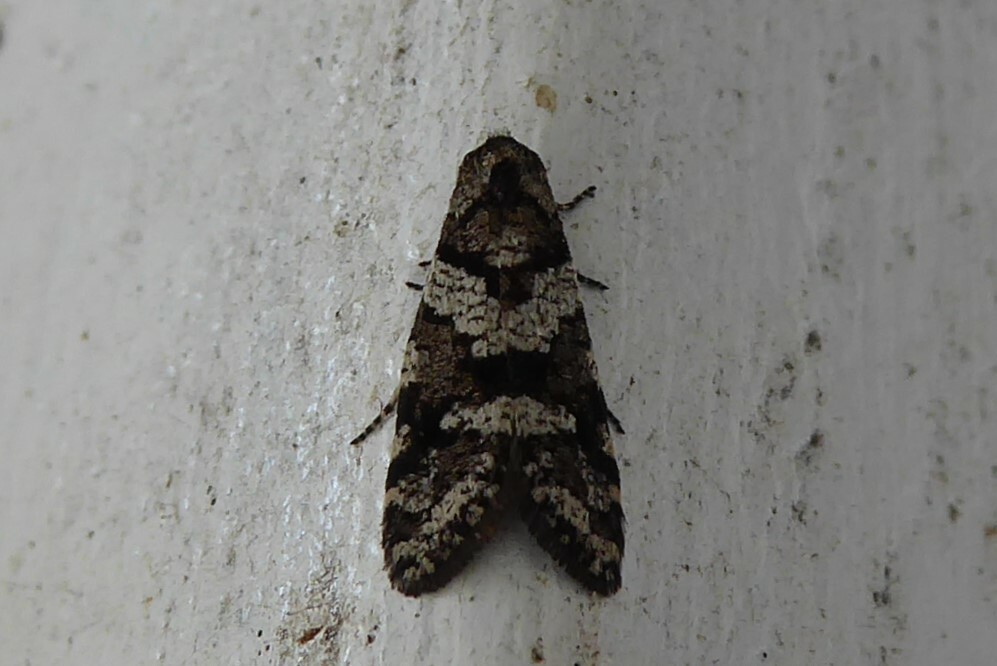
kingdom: Animalia
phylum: Arthropoda
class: Insecta
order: Lepidoptera
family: Psychidae
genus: Lepidoscia
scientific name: Lepidoscia heliochares
